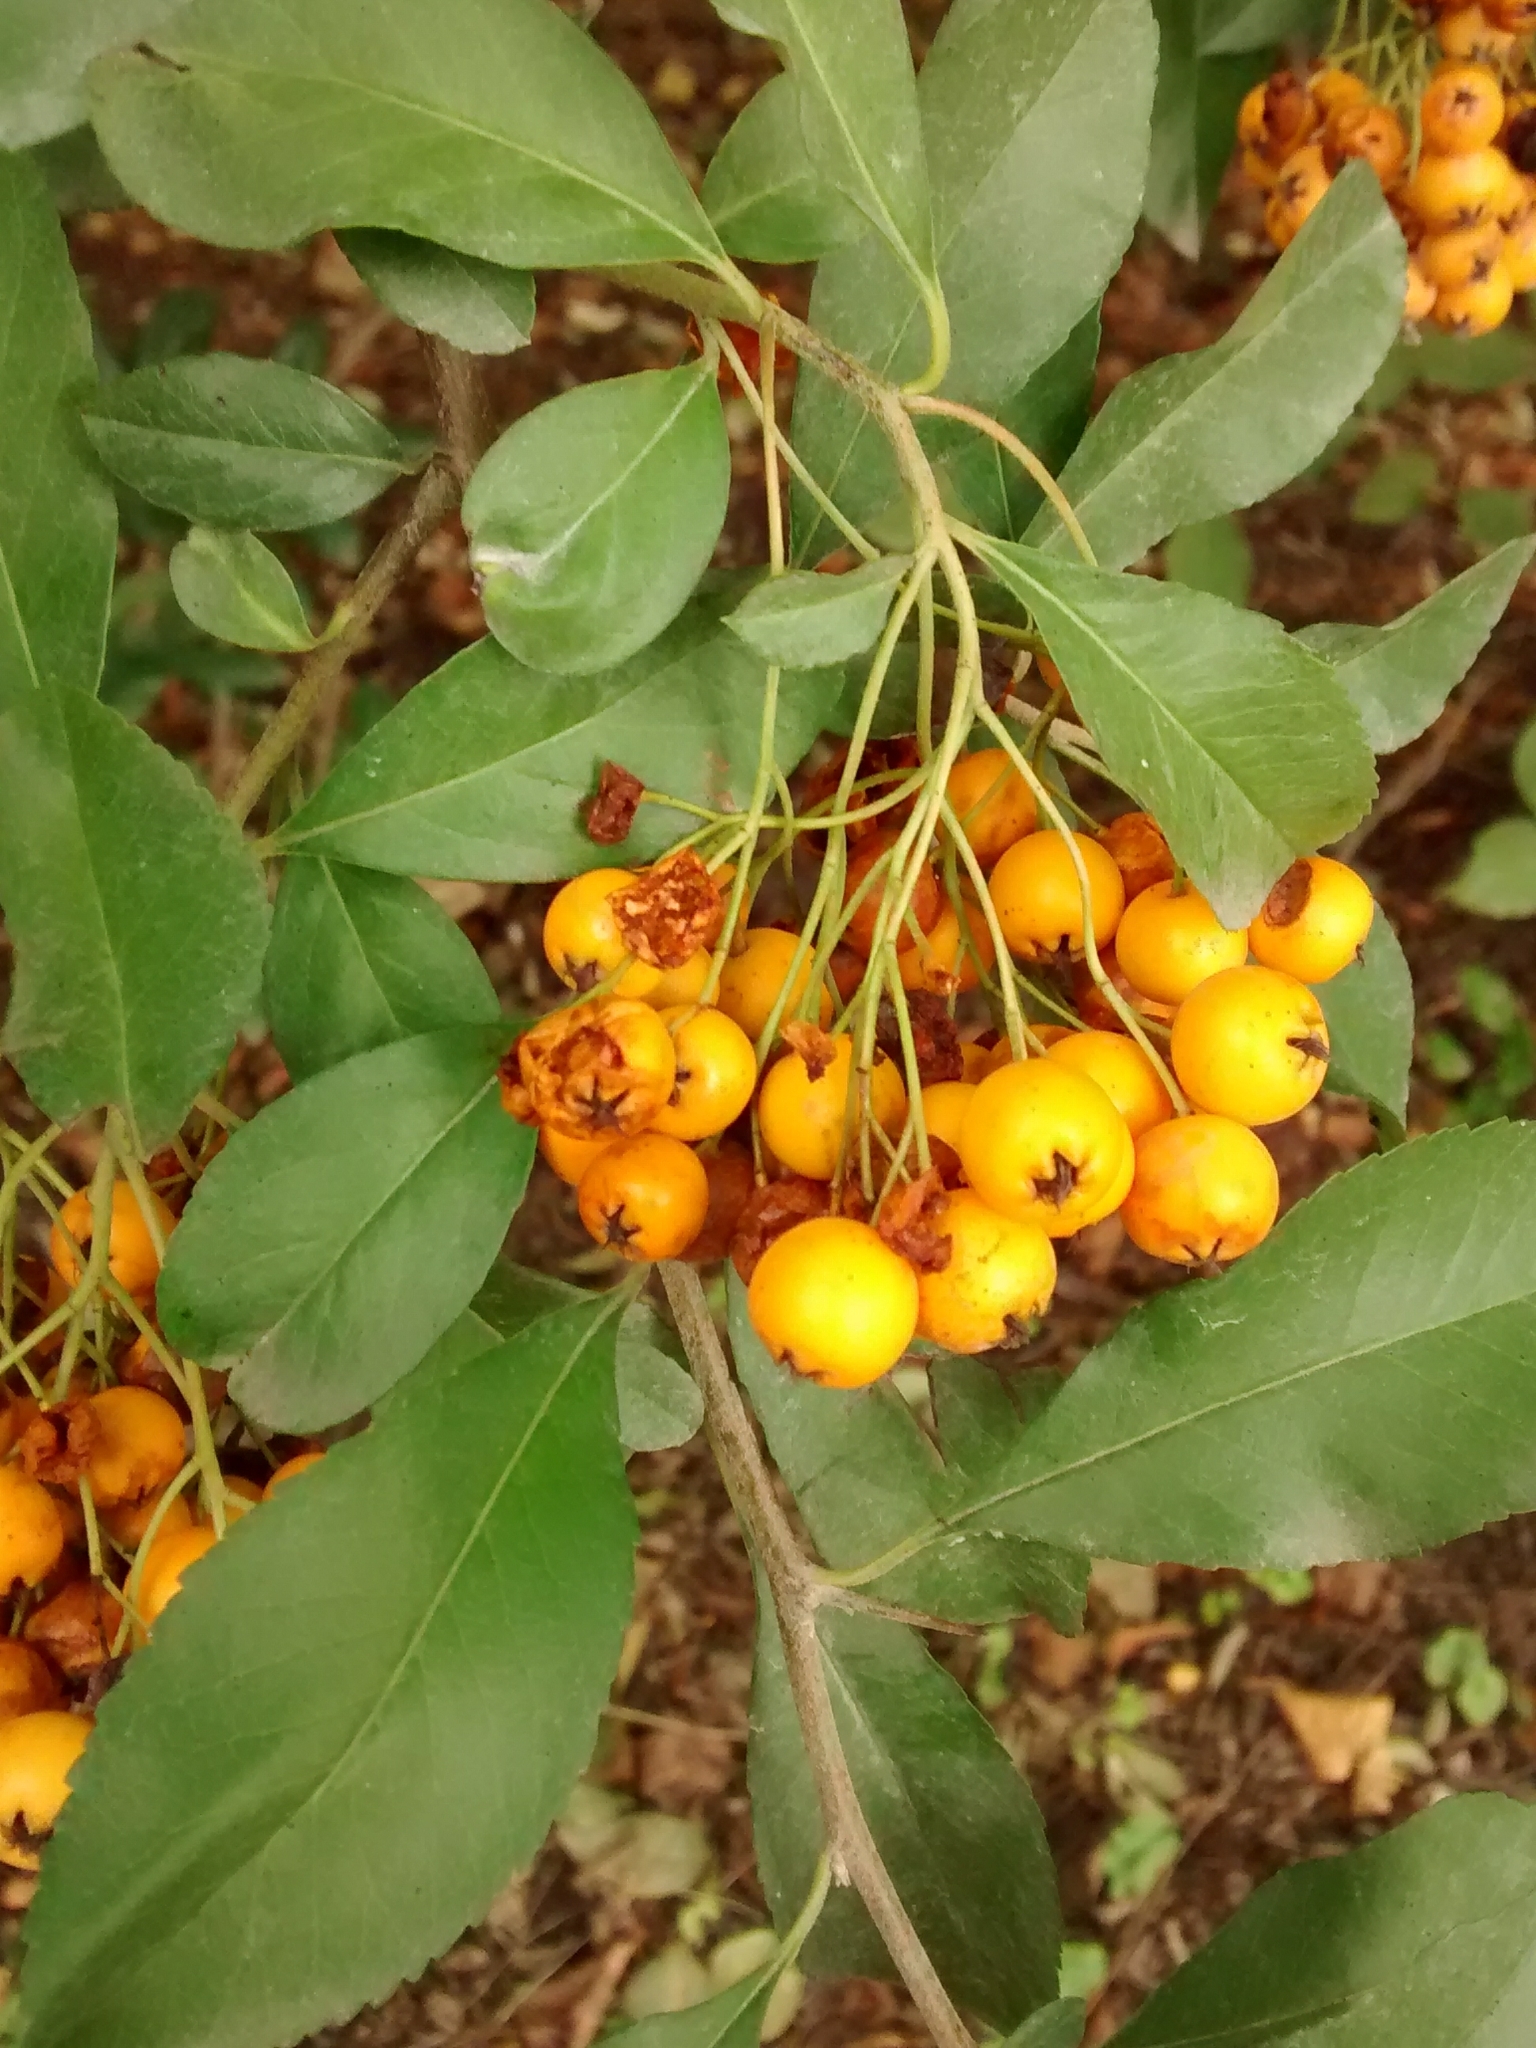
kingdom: Plantae
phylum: Tracheophyta
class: Magnoliopsida
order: Rosales
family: Rosaceae
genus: Pyracantha
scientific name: Pyracantha coccinea
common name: Firethorn
